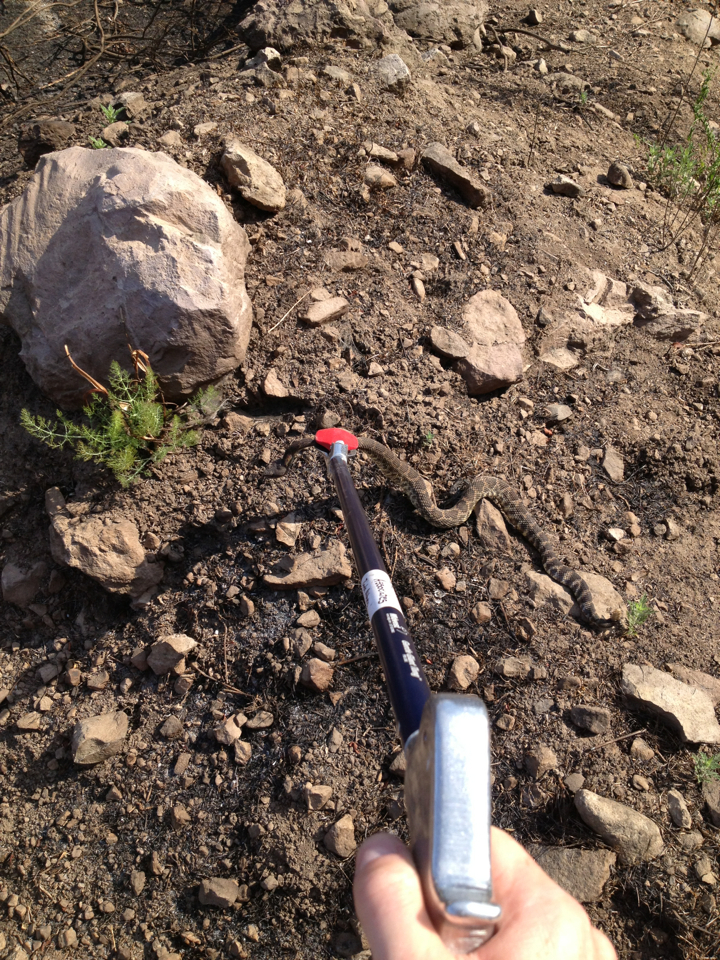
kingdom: Animalia
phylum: Chordata
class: Squamata
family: Viperidae
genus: Crotalus
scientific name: Crotalus oreganus
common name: Abyssus
